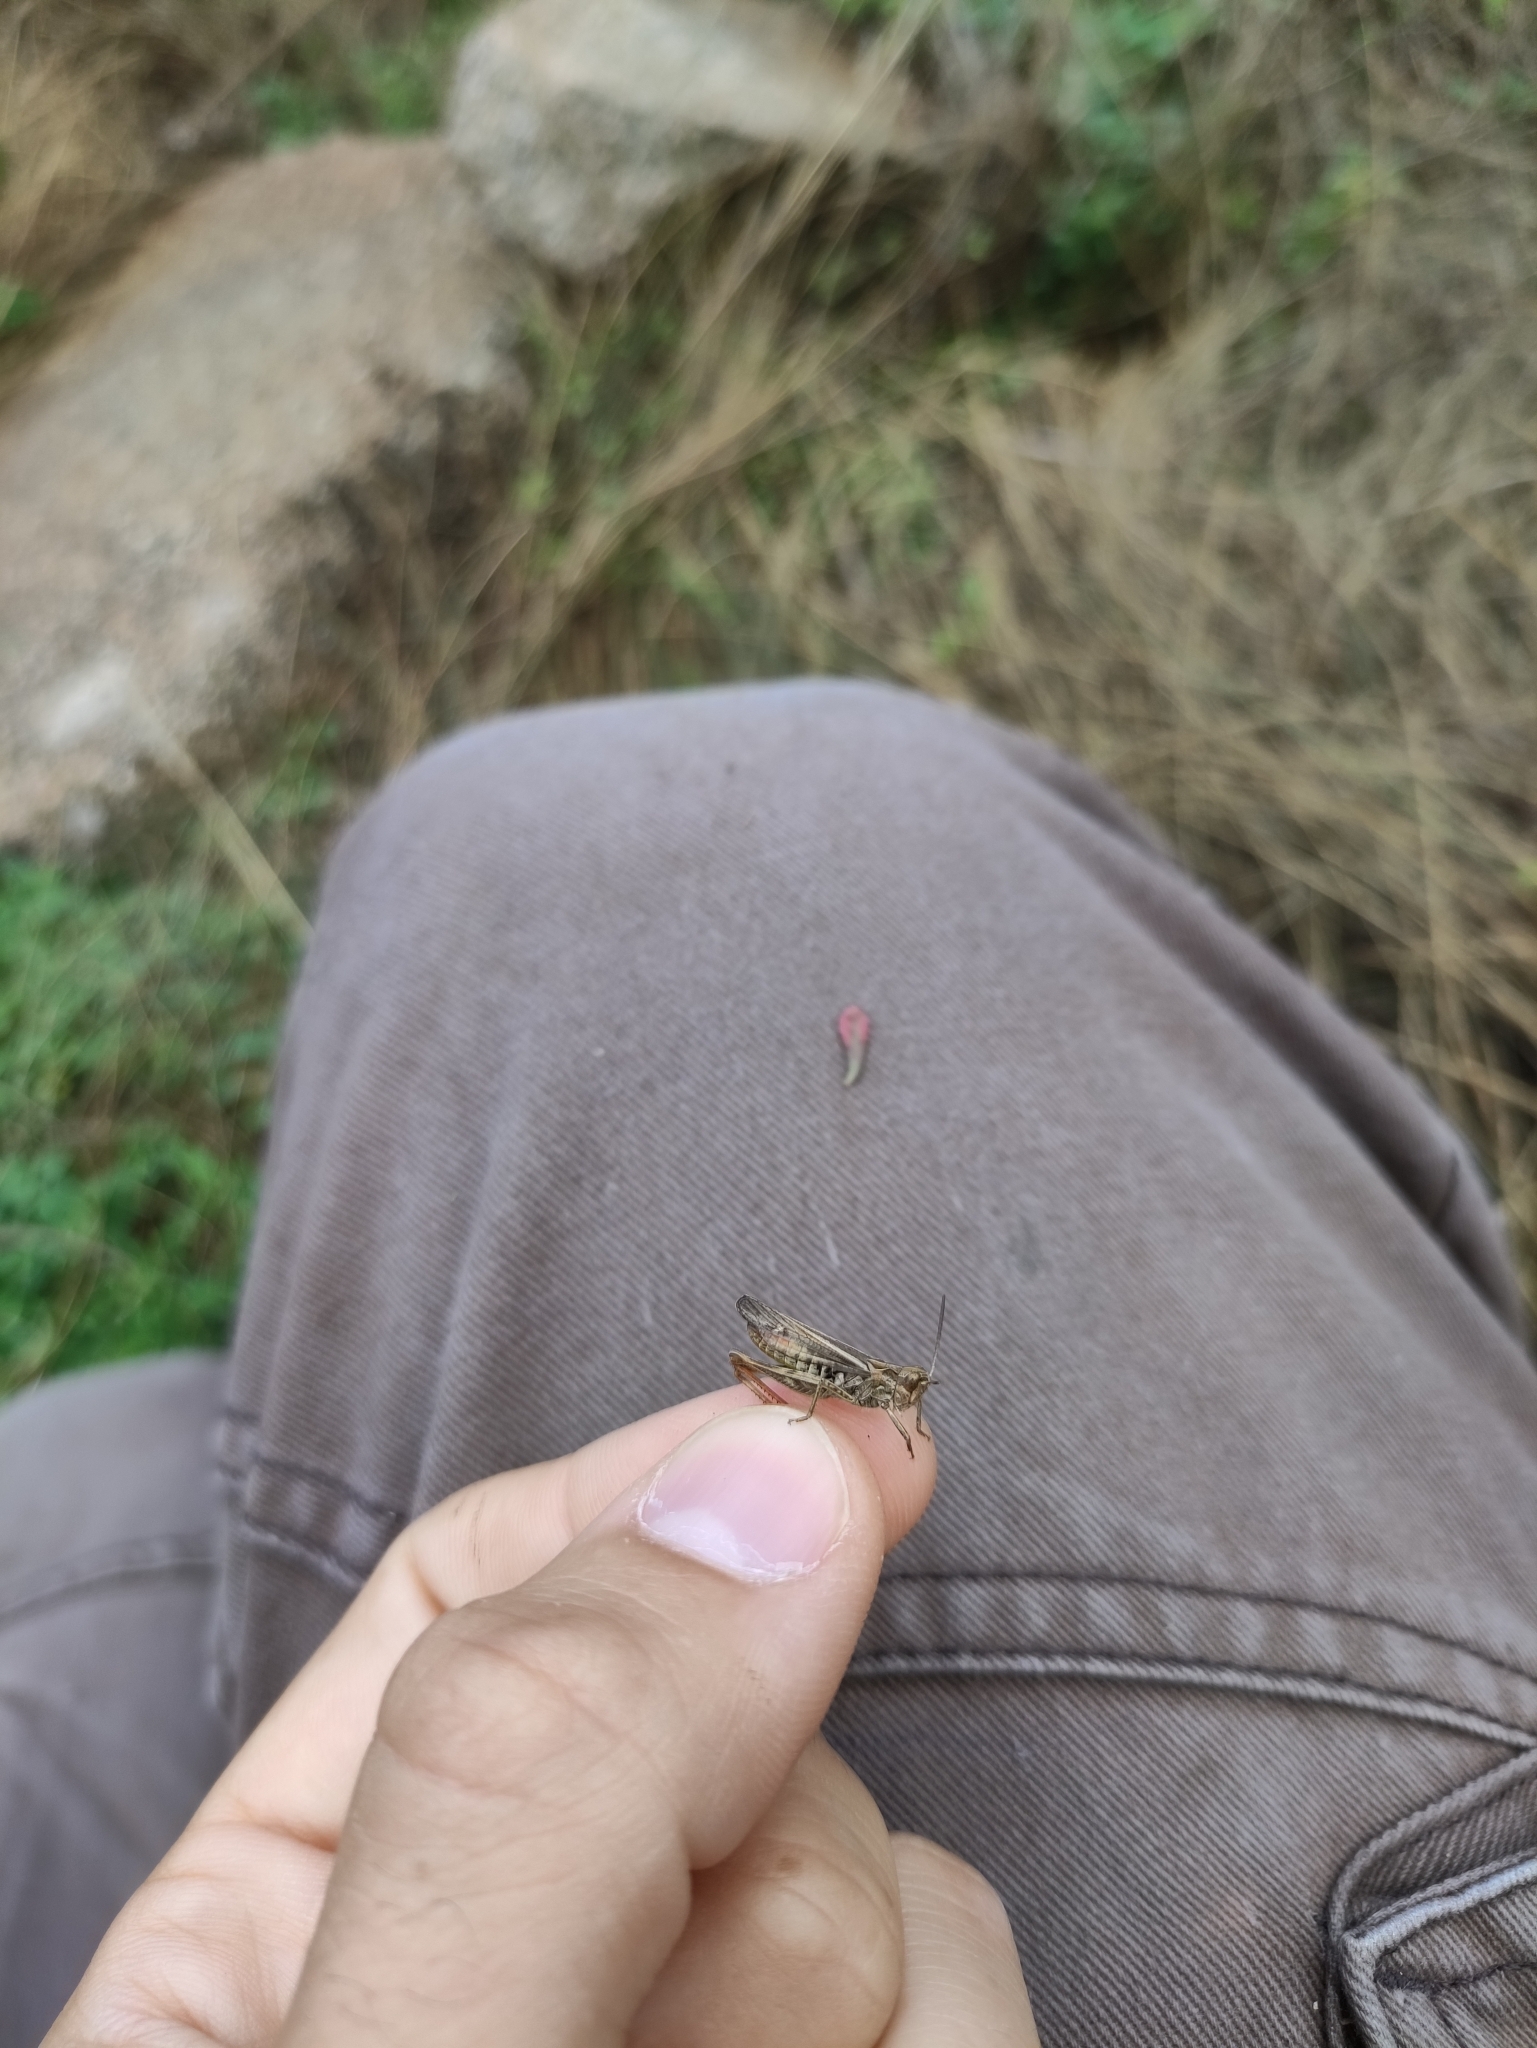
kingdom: Animalia
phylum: Arthropoda
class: Insecta
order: Orthoptera
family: Acrididae
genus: Chorthippus
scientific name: Chorthippus biguttulus
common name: Bow-winged grasshopper
